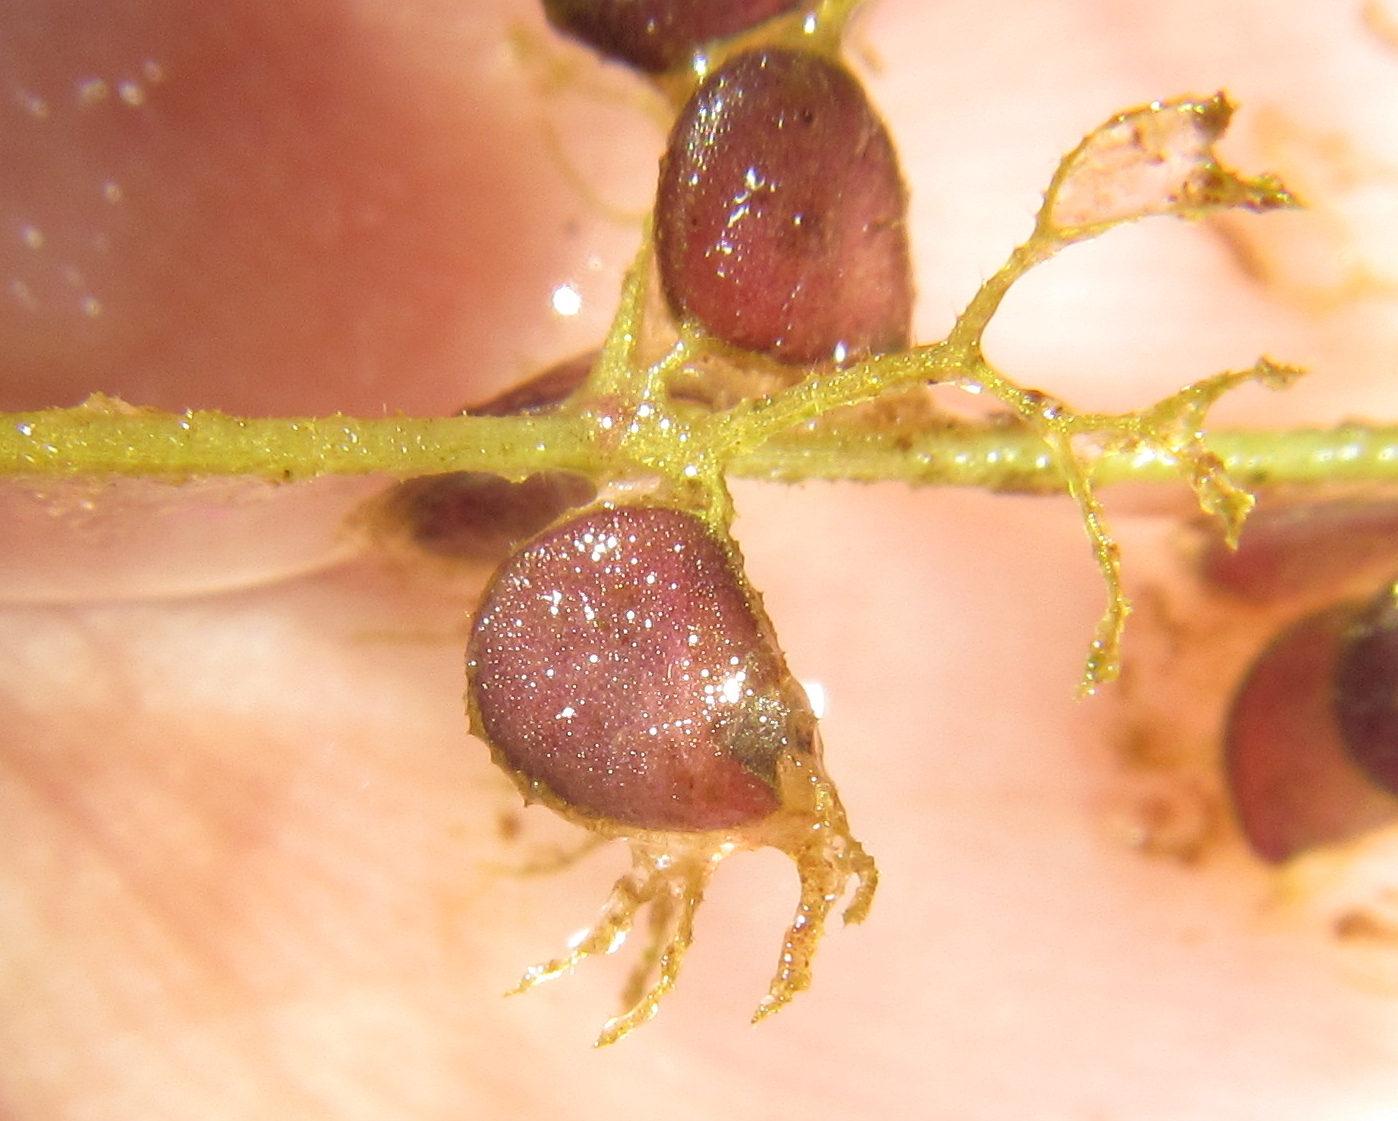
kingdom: Plantae
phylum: Tracheophyta
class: Magnoliopsida
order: Lamiales
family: Lentibulariaceae
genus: Utricularia
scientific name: Utricularia reflexa
